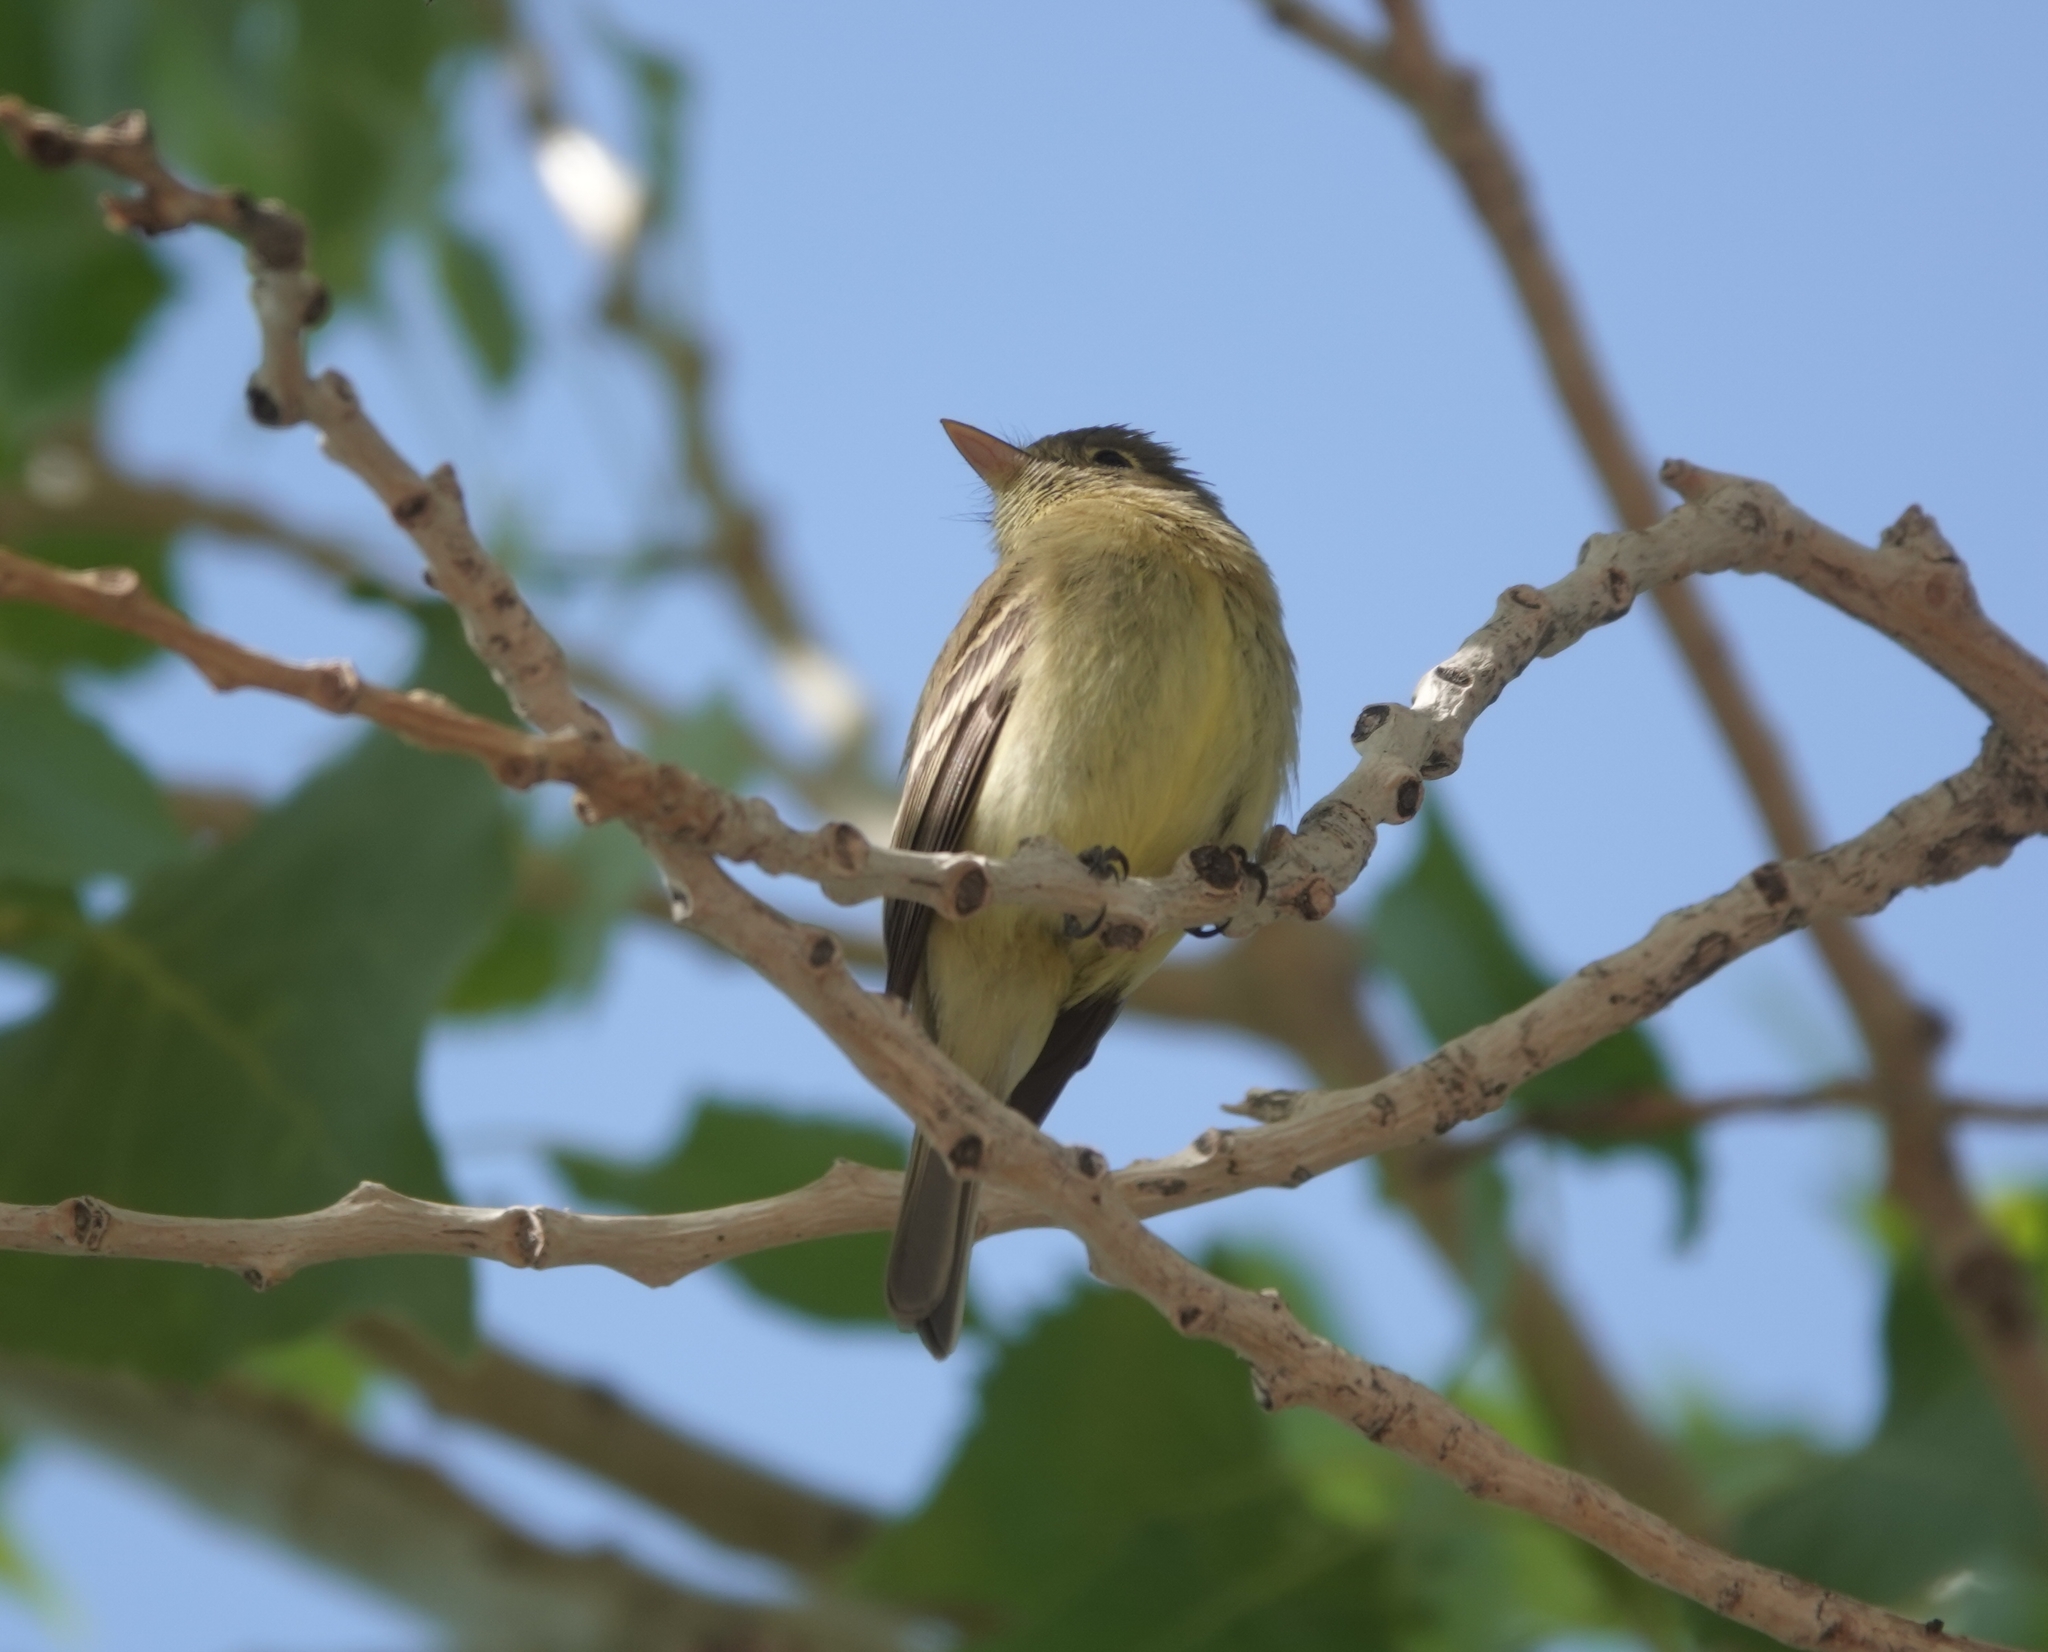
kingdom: Animalia
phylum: Chordata
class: Aves
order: Passeriformes
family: Tyrannidae
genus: Empidonax
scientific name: Empidonax difficilis
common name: Pacific-slope flycatcher
